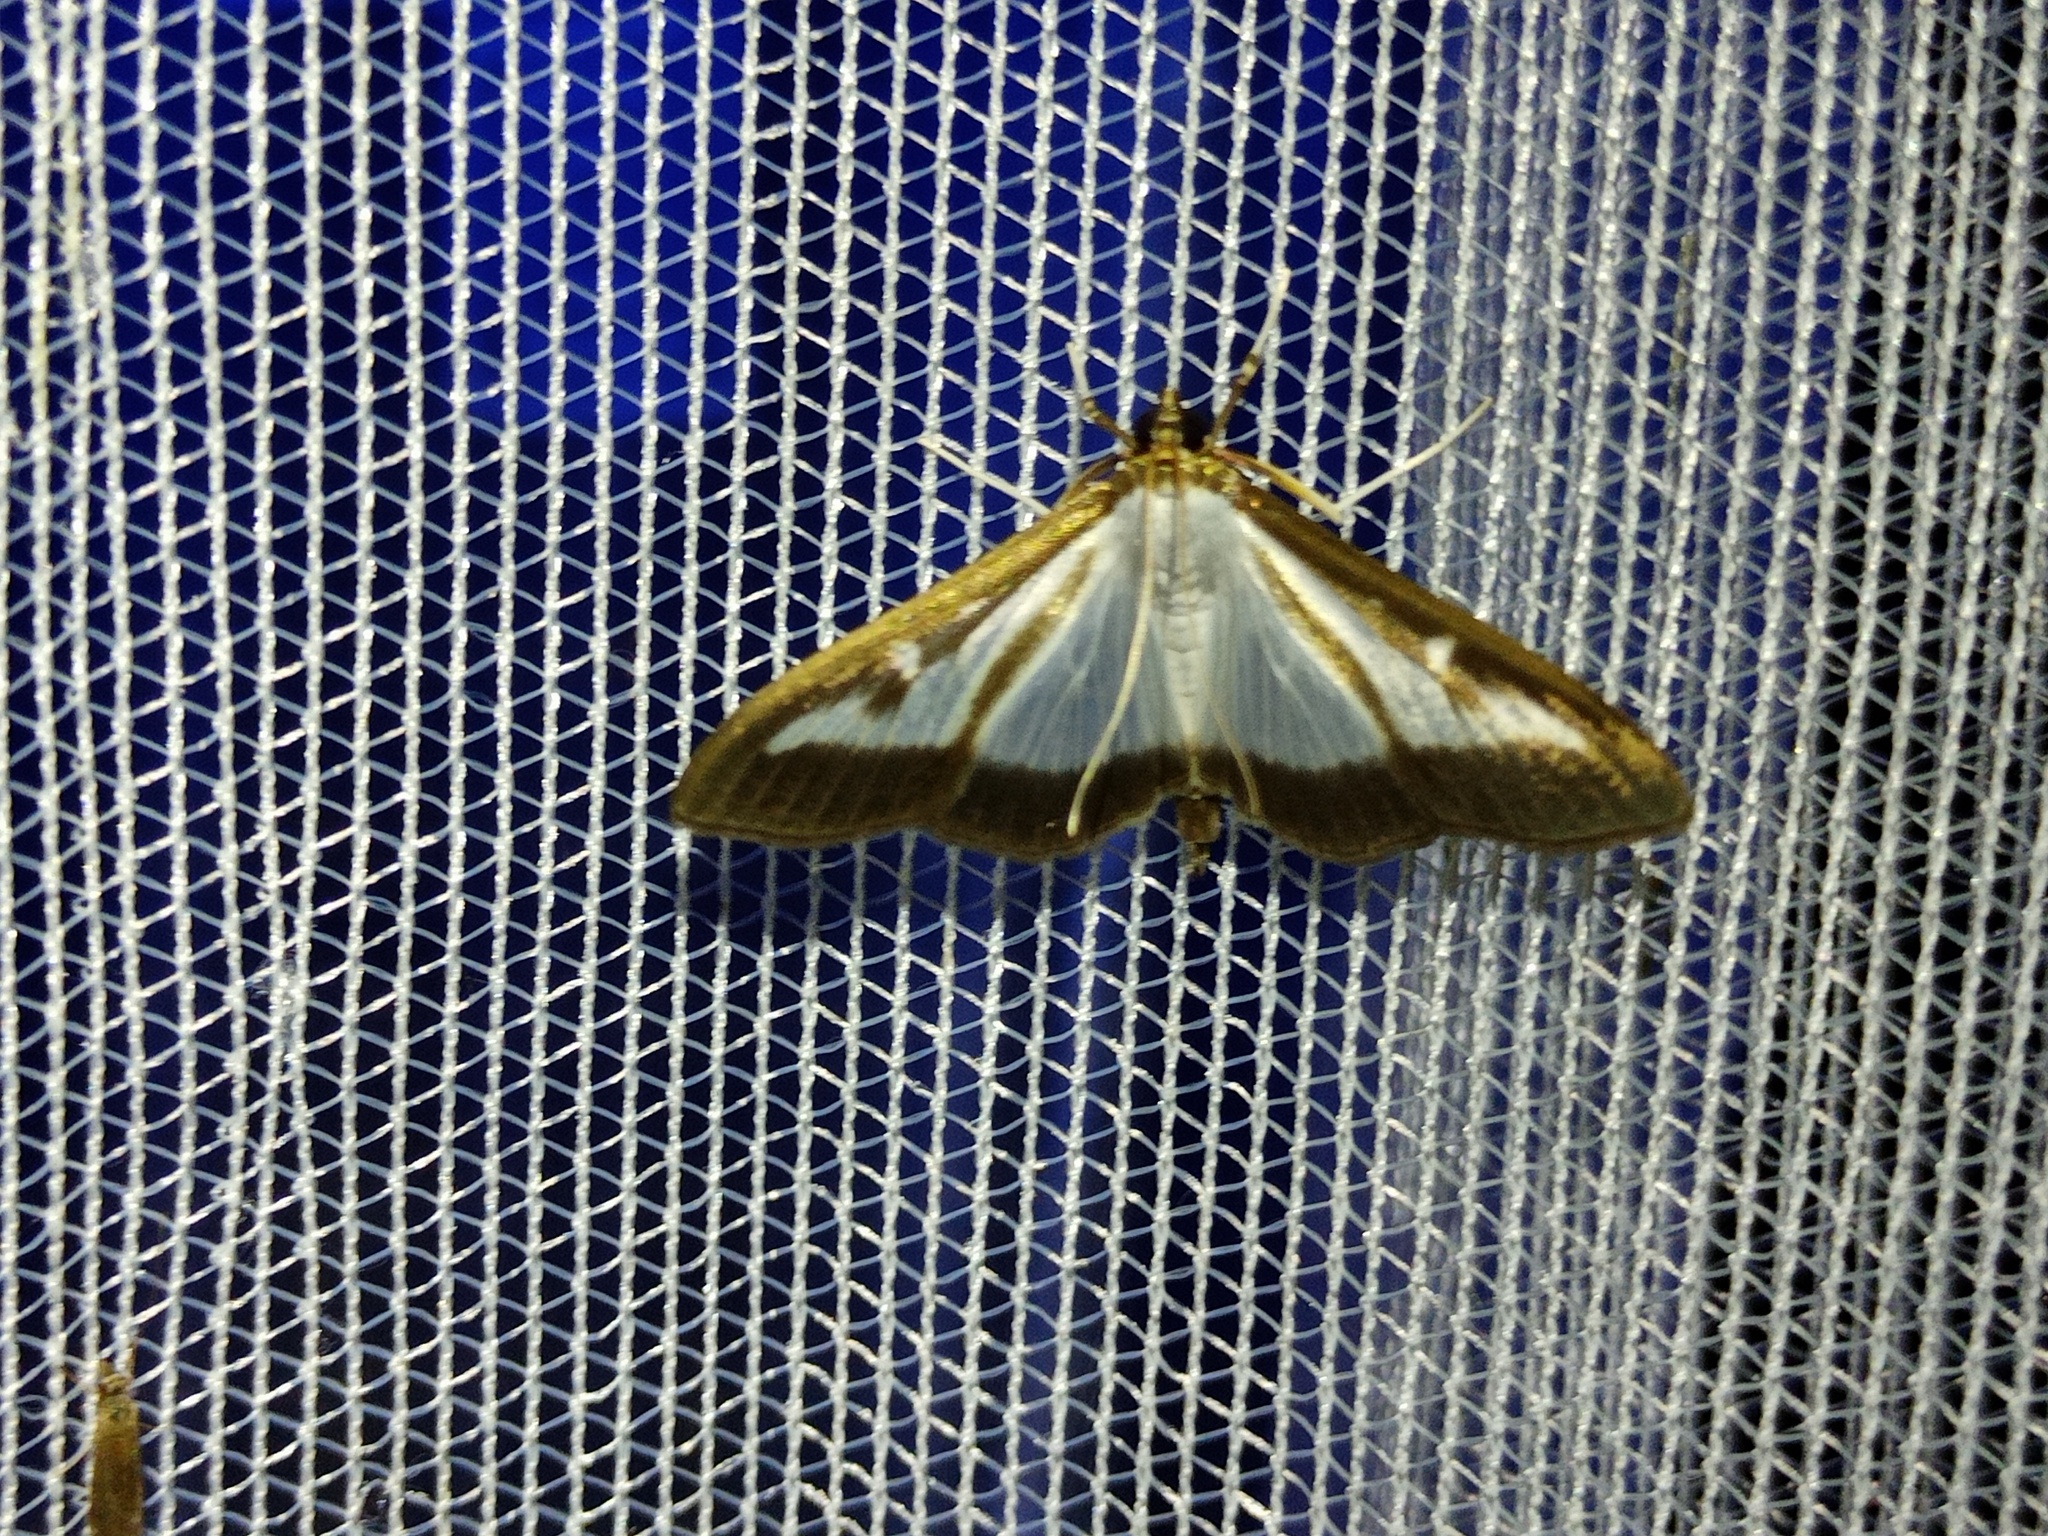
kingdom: Animalia
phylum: Arthropoda
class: Insecta
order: Lepidoptera
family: Crambidae
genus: Cydalima
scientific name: Cydalima perspectalis
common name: Box tree moth
